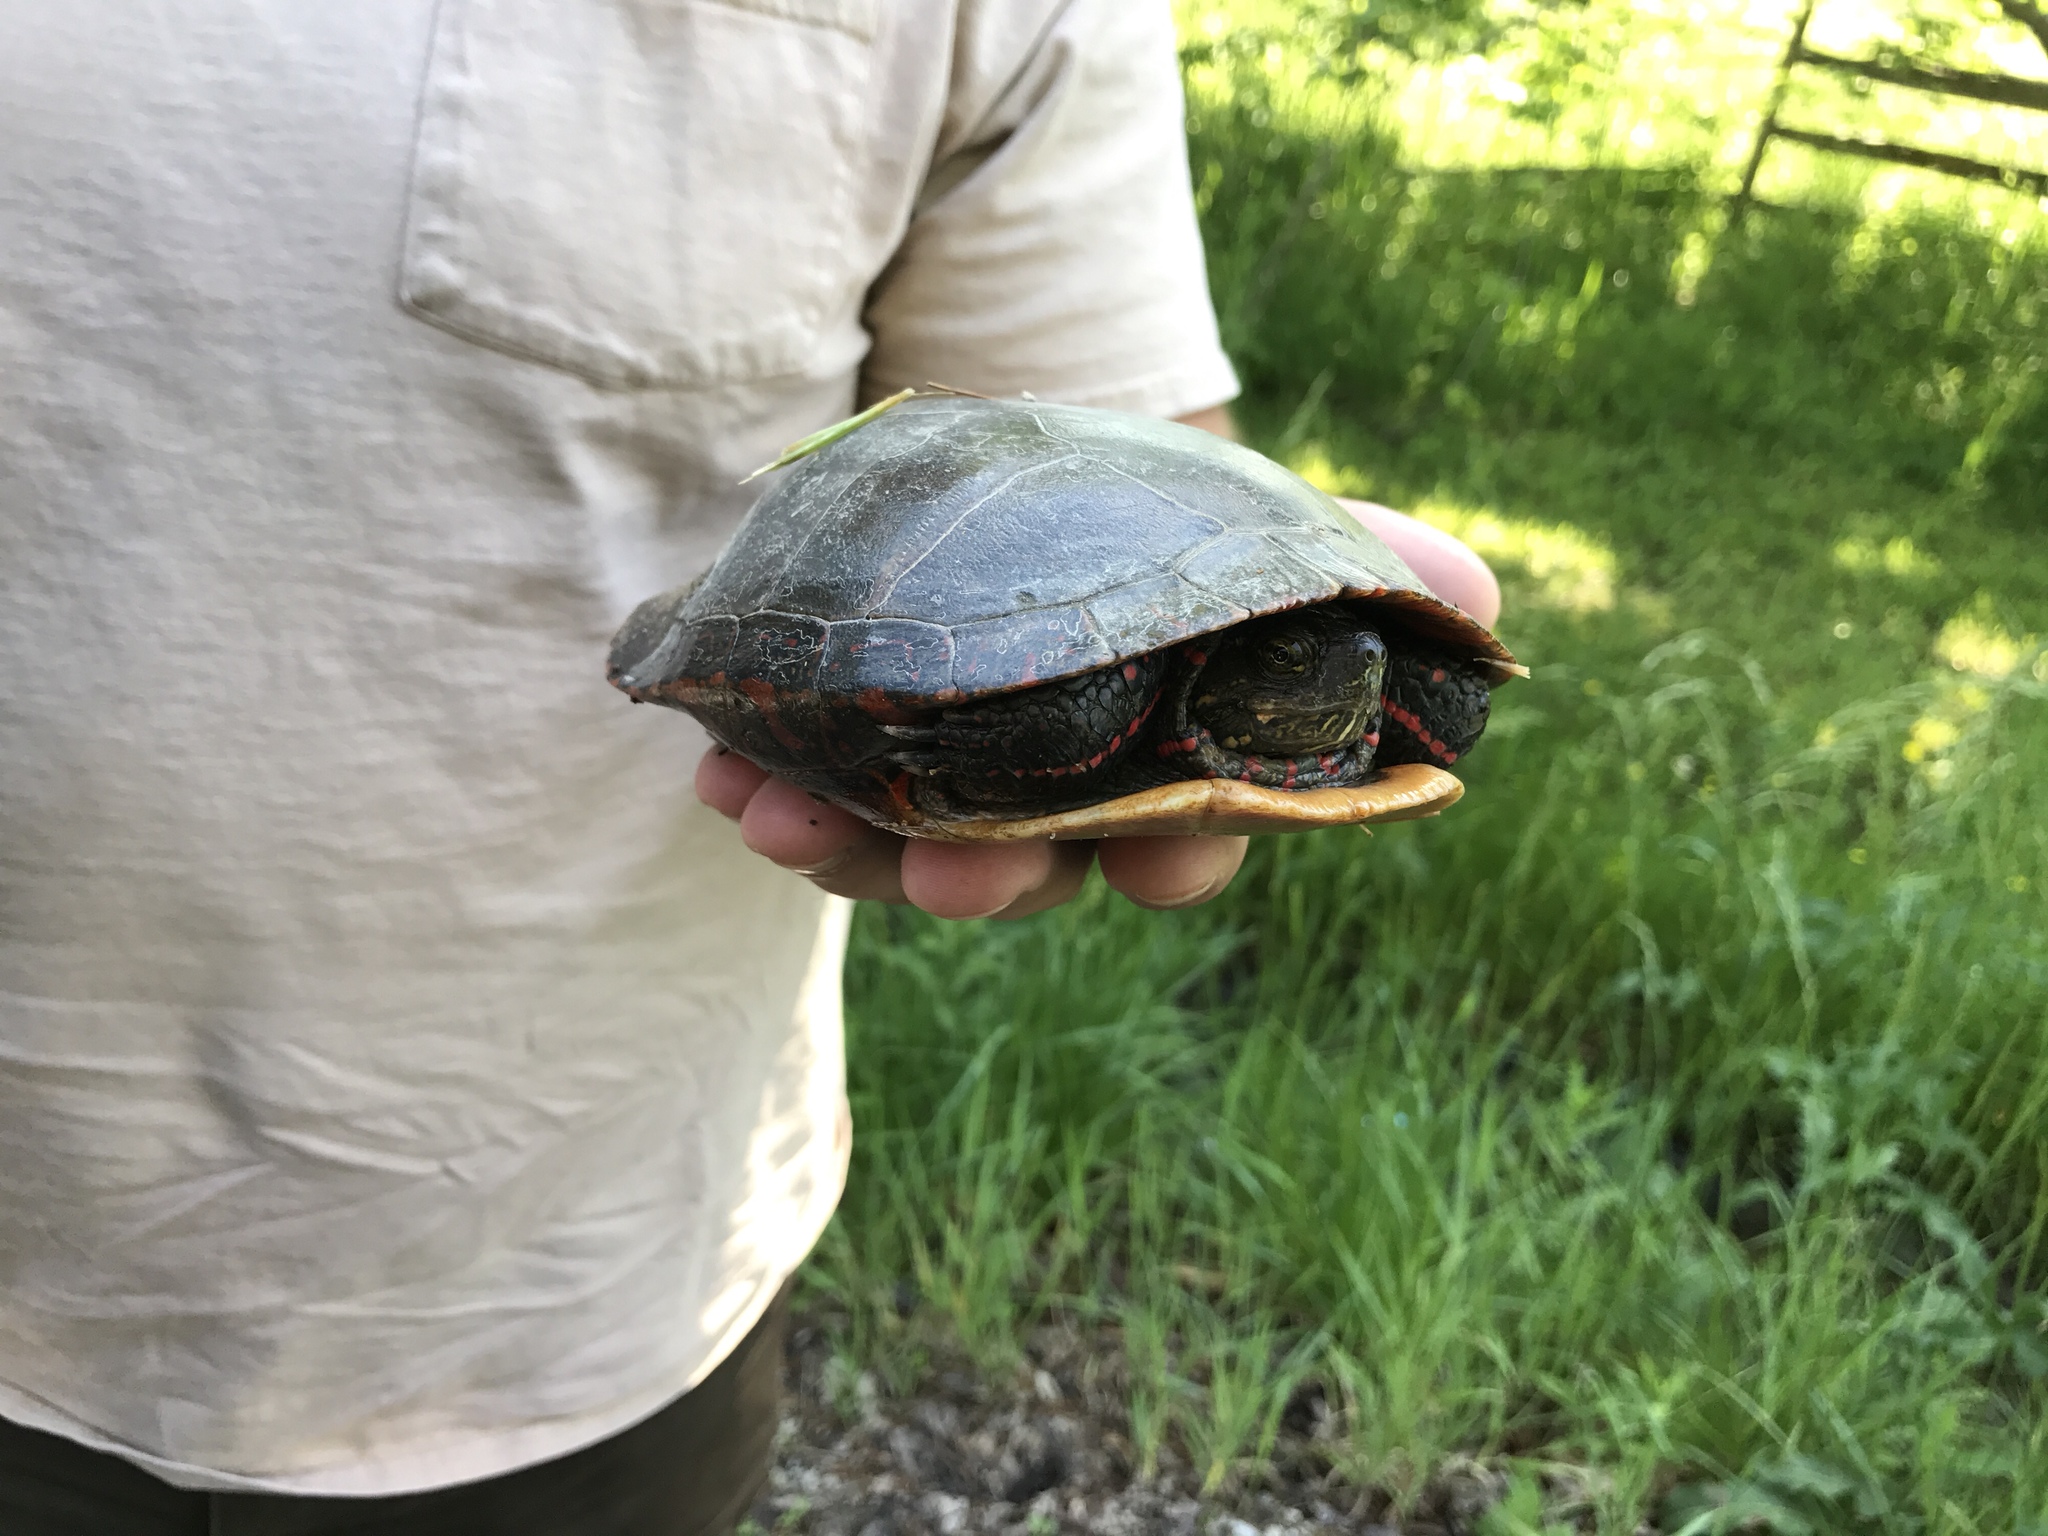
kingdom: Animalia
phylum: Chordata
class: Testudines
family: Emydidae
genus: Chrysemys
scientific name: Chrysemys picta
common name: Painted turtle
